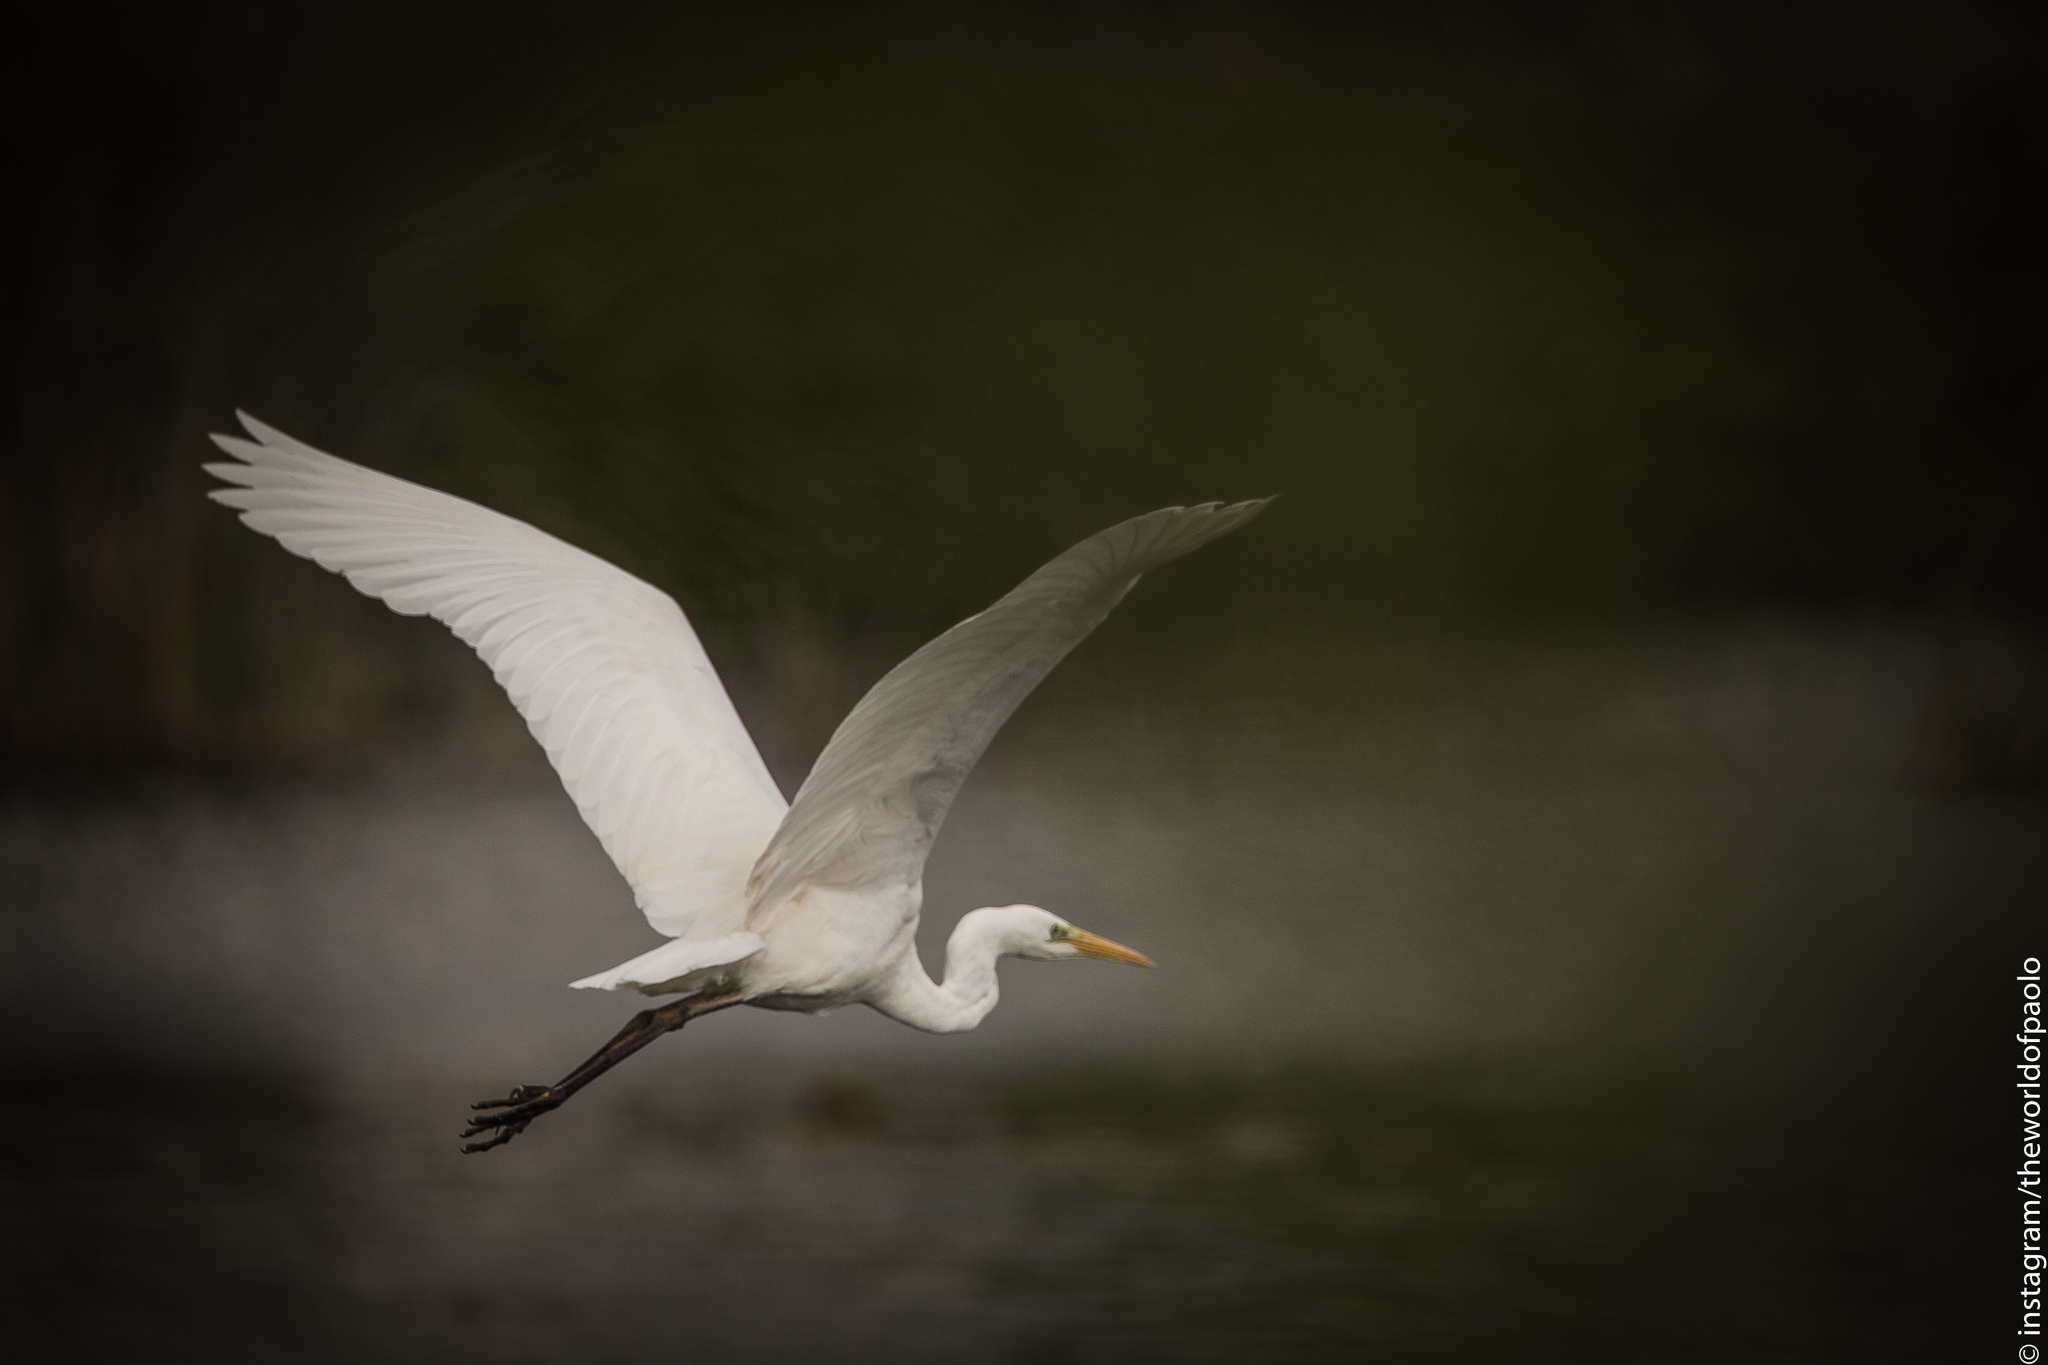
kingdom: Animalia
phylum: Chordata
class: Aves
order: Pelecaniformes
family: Ardeidae
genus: Ardea
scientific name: Ardea alba
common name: Great egret
